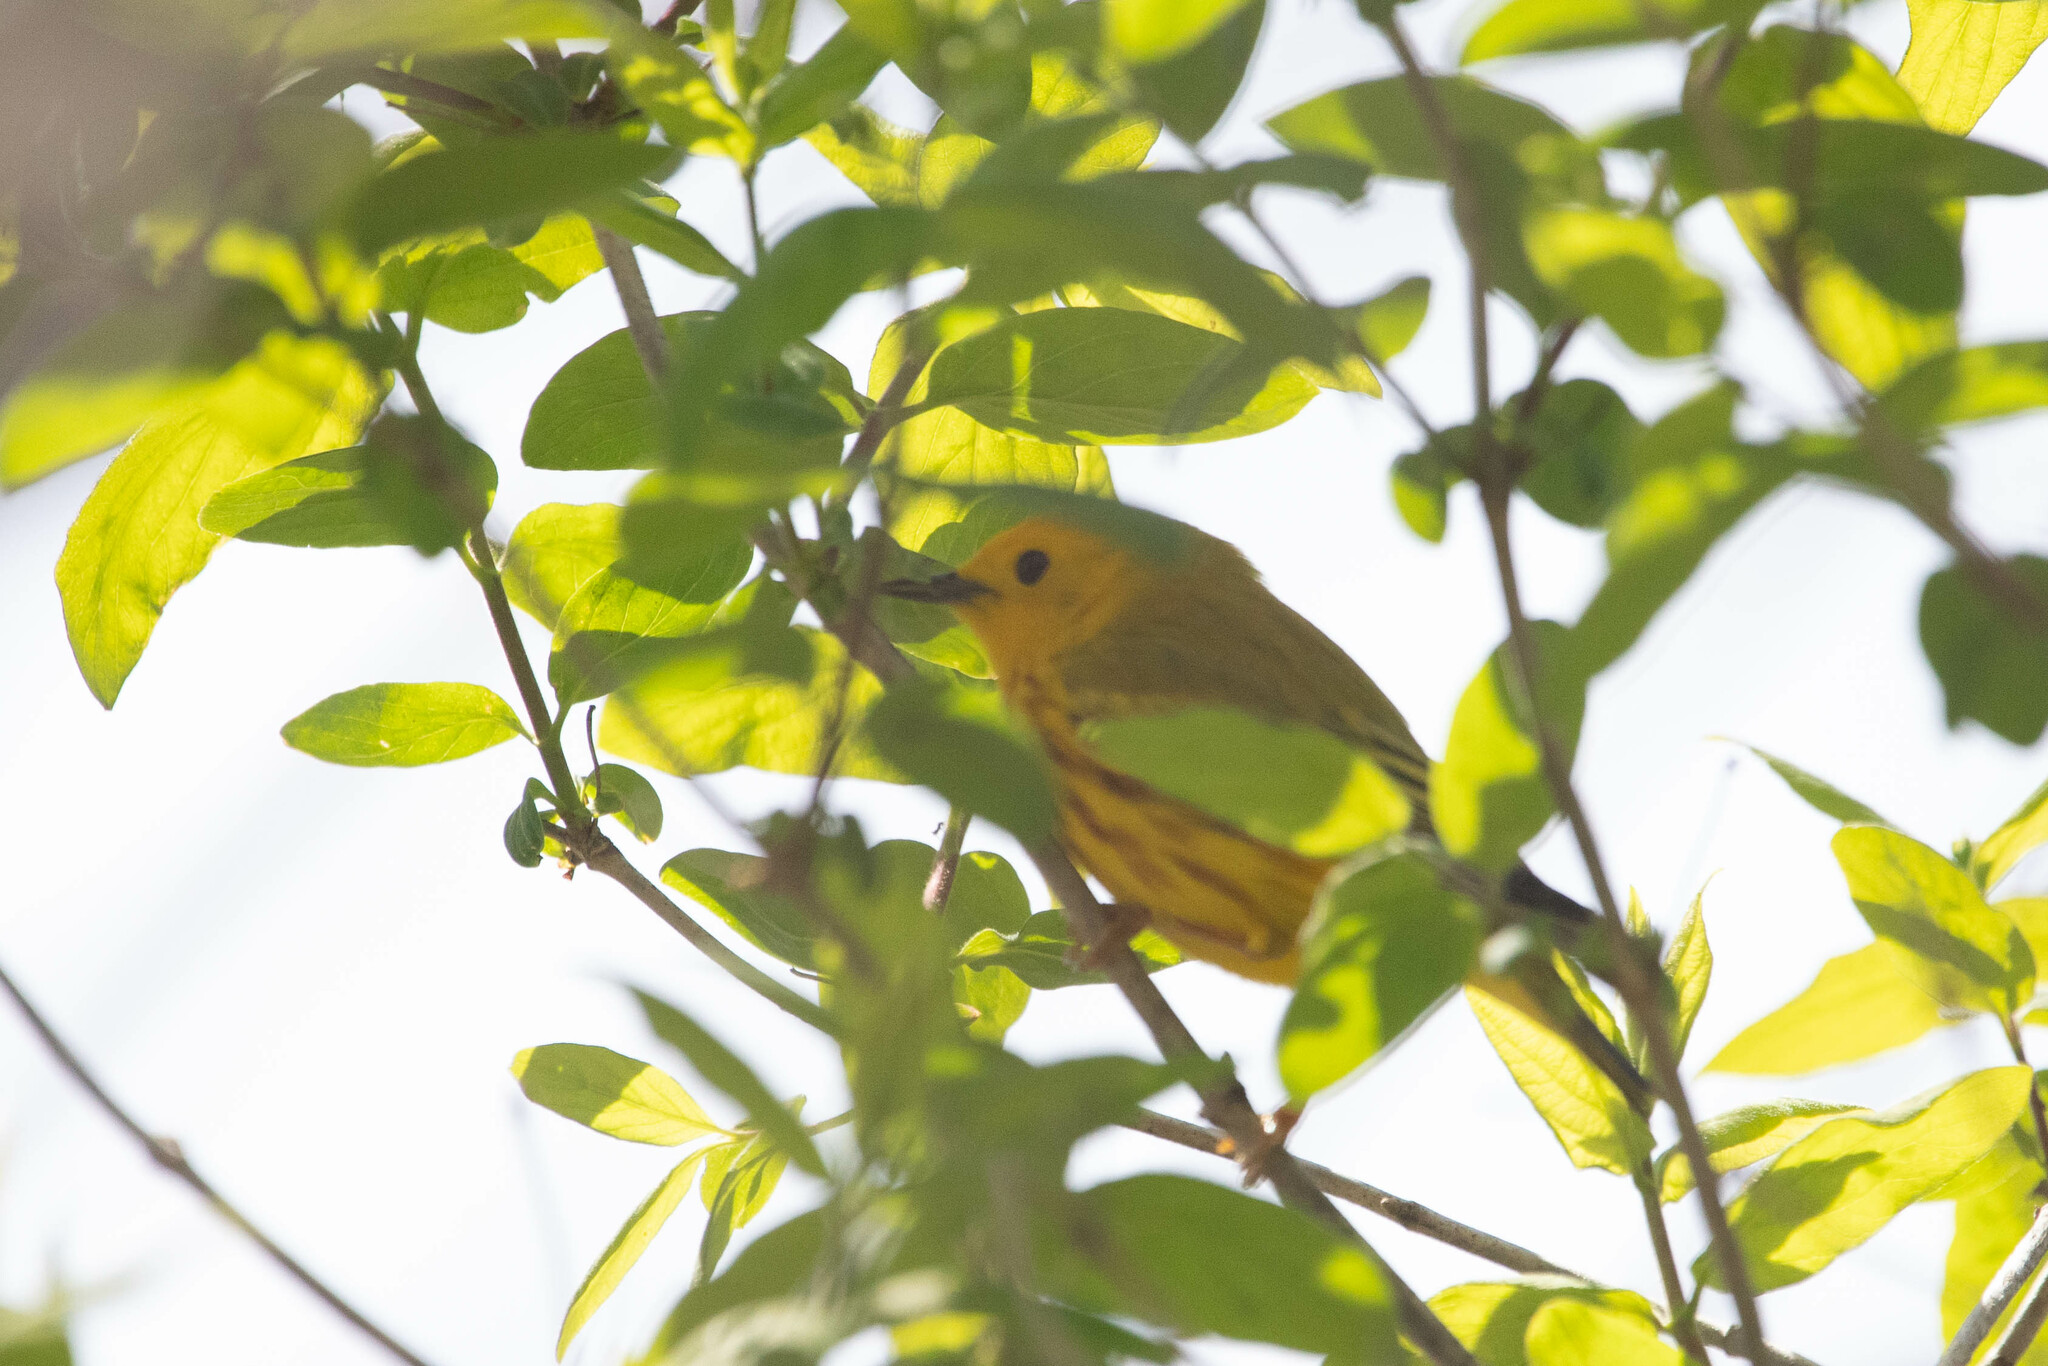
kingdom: Animalia
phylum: Chordata
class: Aves
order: Passeriformes
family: Parulidae
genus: Setophaga
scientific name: Setophaga petechia
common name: Yellow warbler
